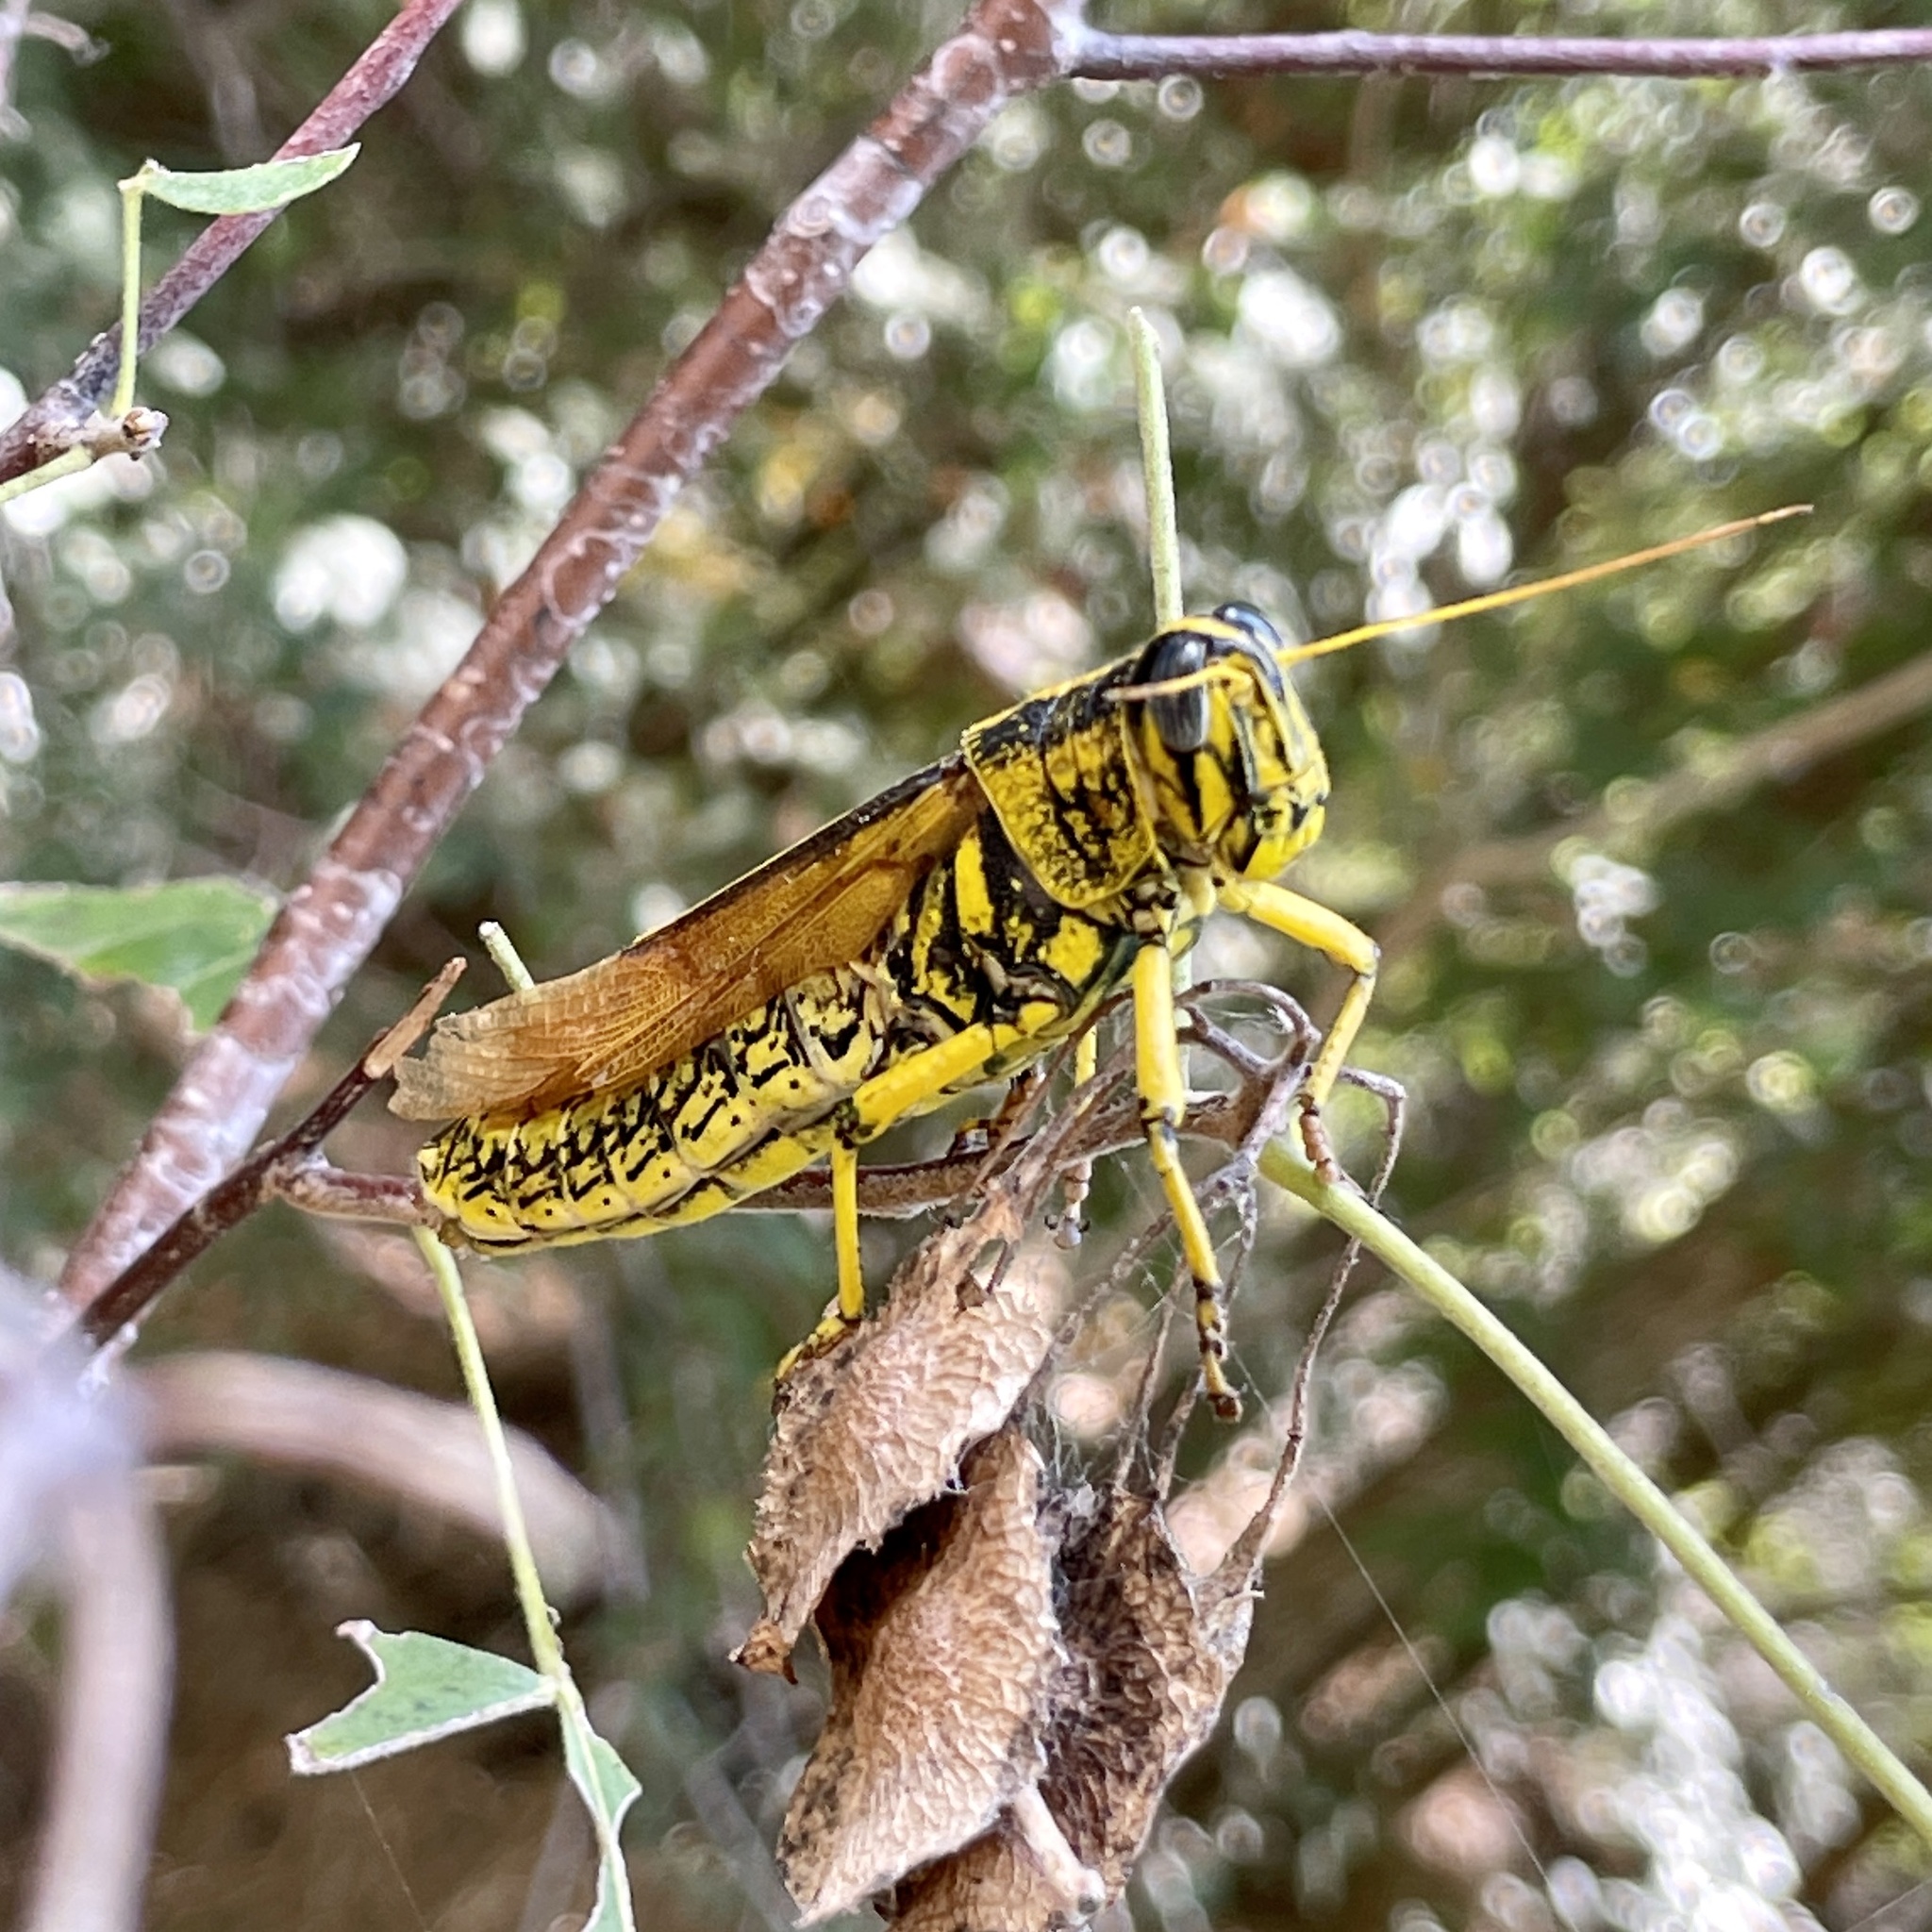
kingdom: Animalia
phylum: Arthropoda
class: Insecta
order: Orthoptera
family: Acrididae
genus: Schistocerca
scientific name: Schistocerca lineata
